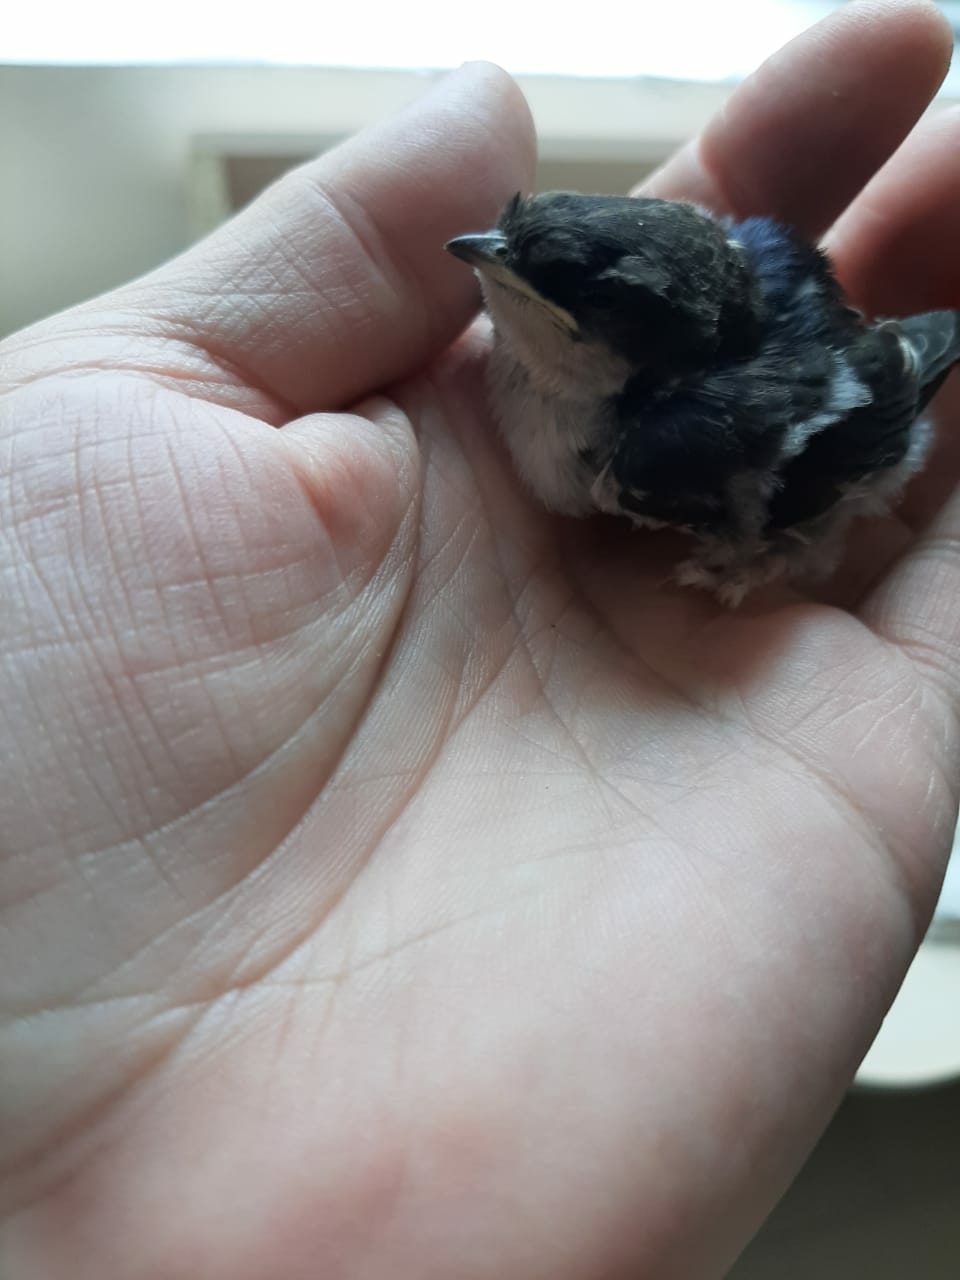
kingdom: Animalia
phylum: Chordata
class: Aves
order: Passeriformes
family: Hirundinidae
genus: Delichon
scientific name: Delichon urbicum
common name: Common house martin
